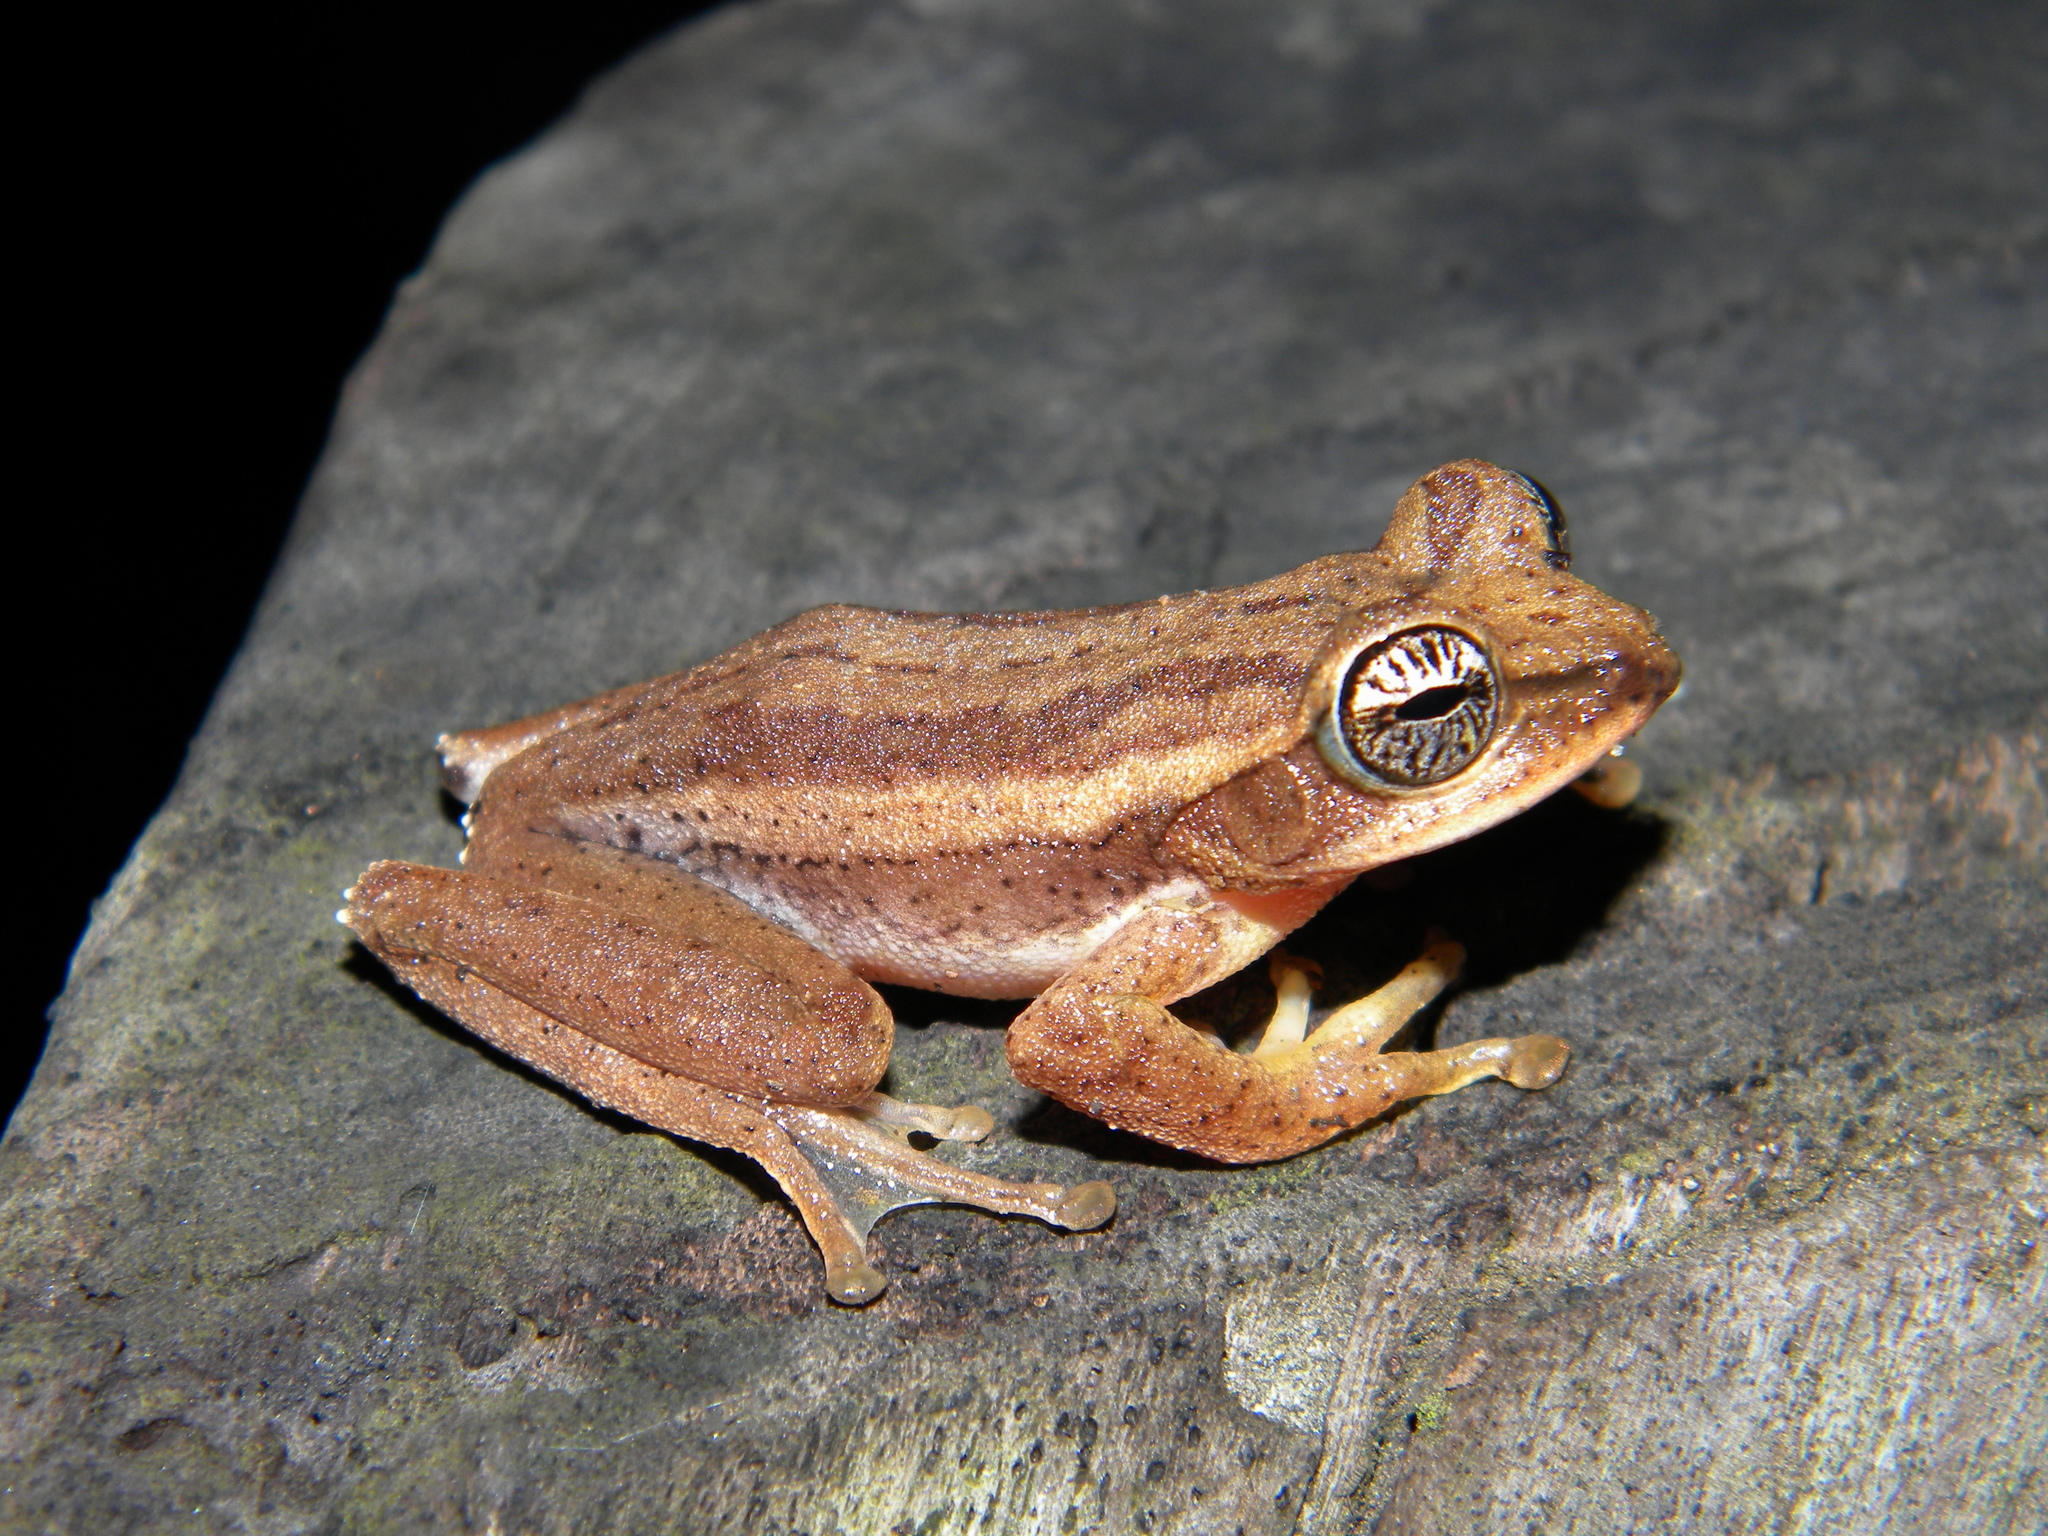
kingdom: Animalia
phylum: Chordata
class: Amphibia
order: Anura
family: Rhacophoridae
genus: Beddomixalus
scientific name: Beddomixalus bijui
